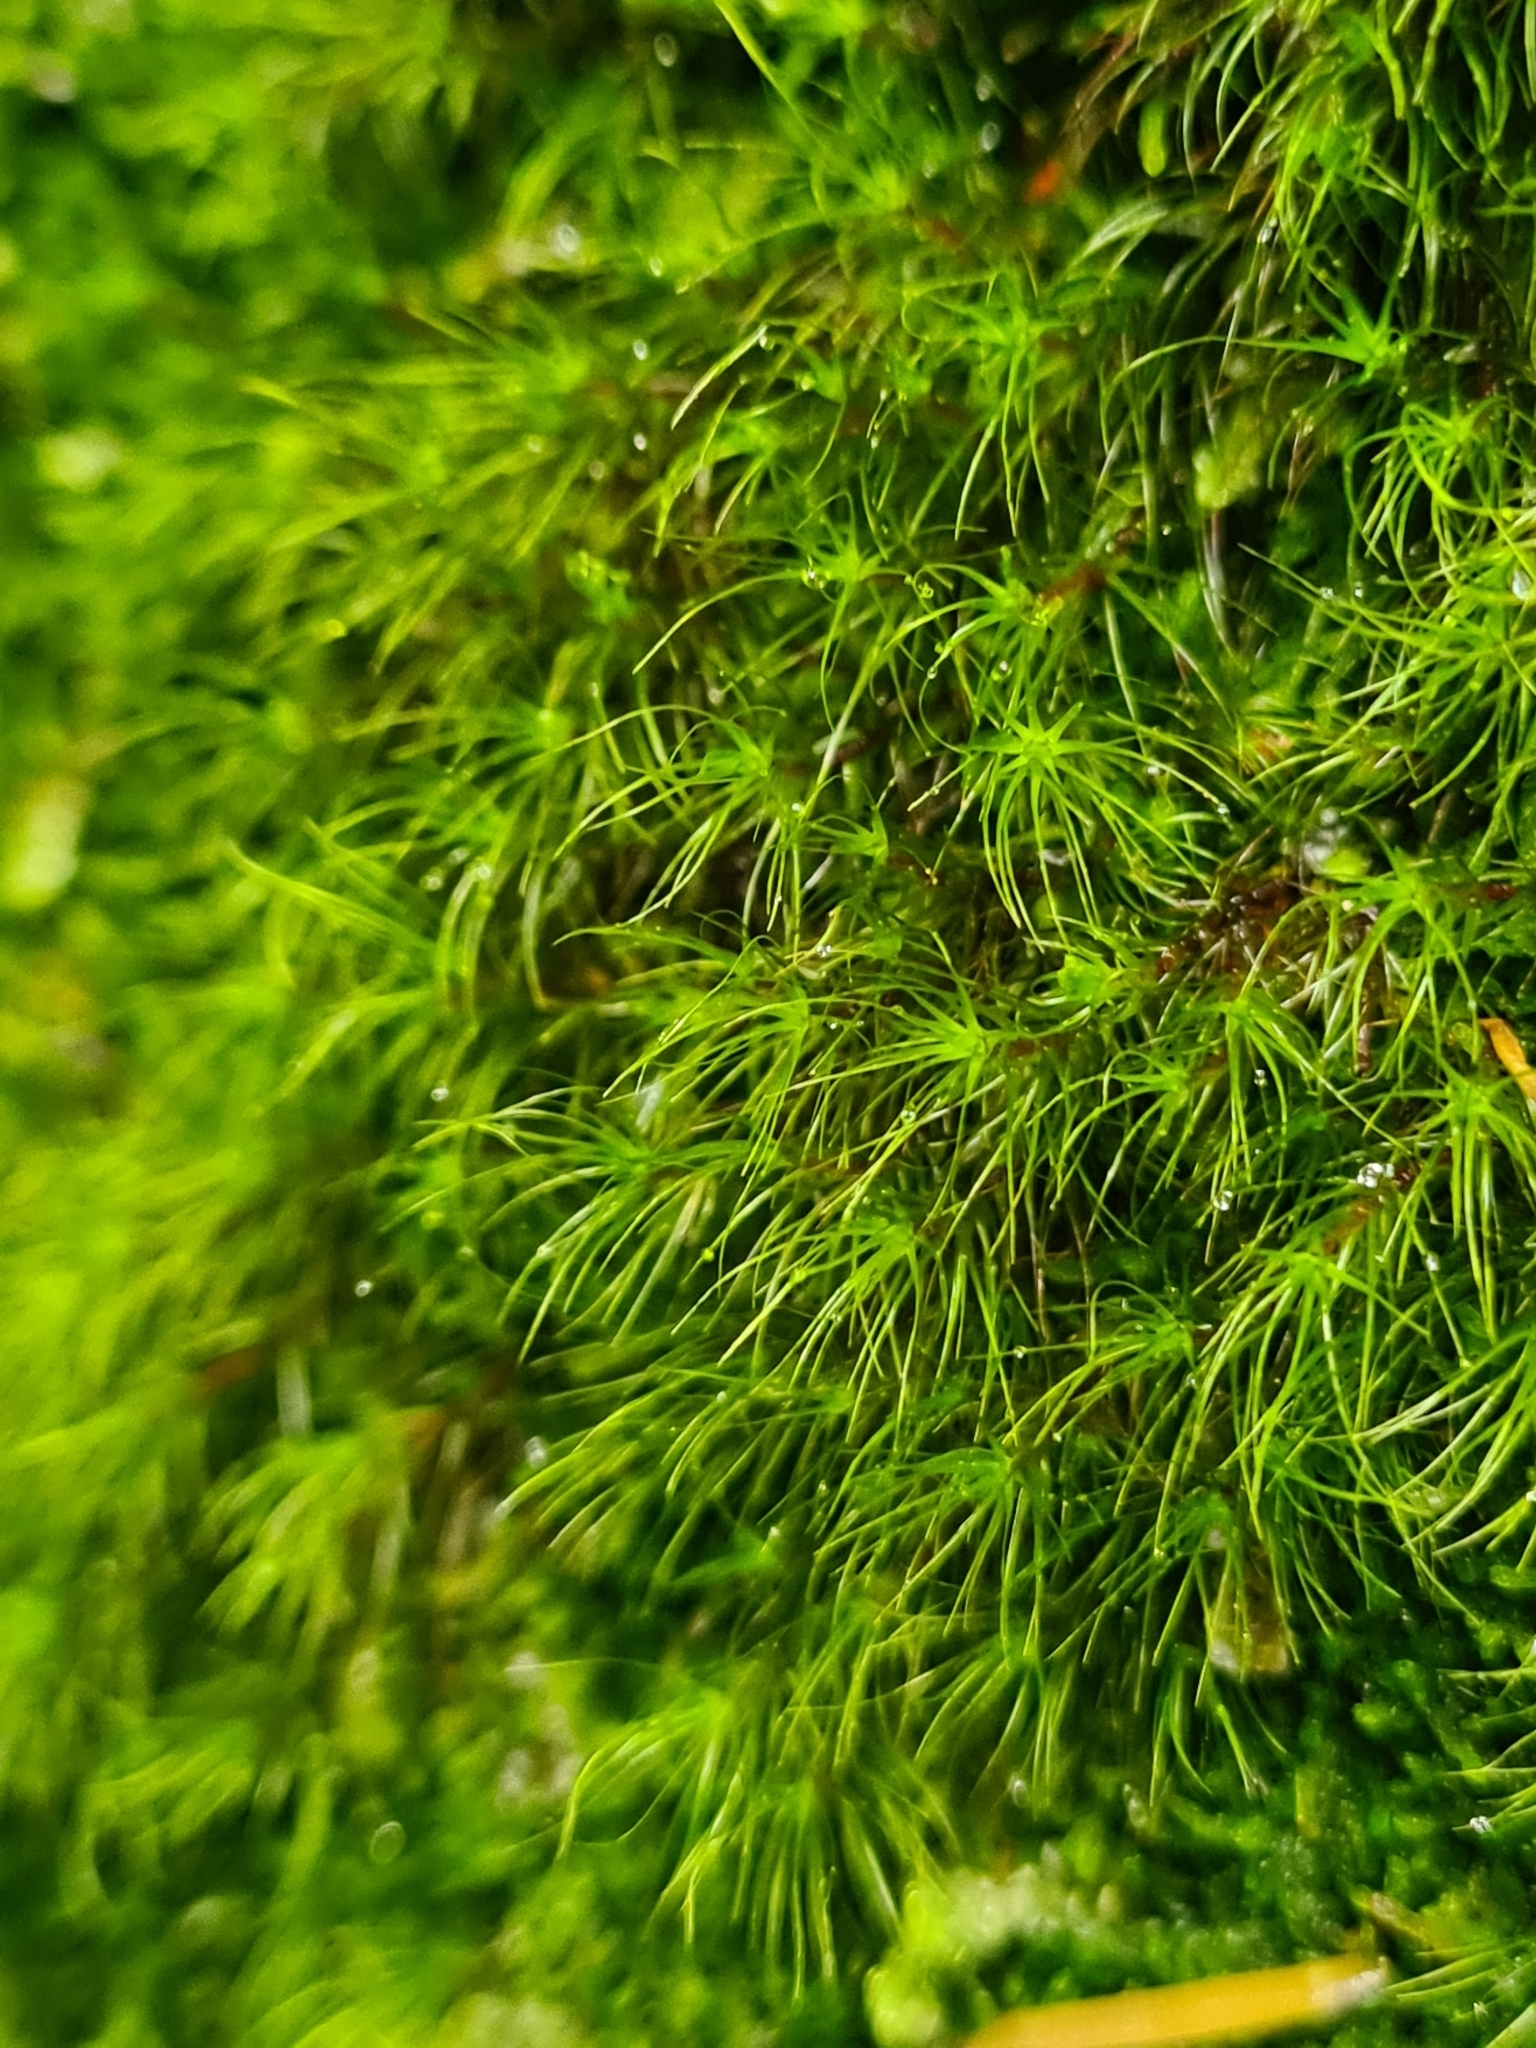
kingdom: Plantae
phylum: Bryophyta
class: Bryopsida
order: Dicranales
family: Leucobryaceae
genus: Dicranodontium
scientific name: Dicranodontium denudatum
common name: Beaked bow moss
